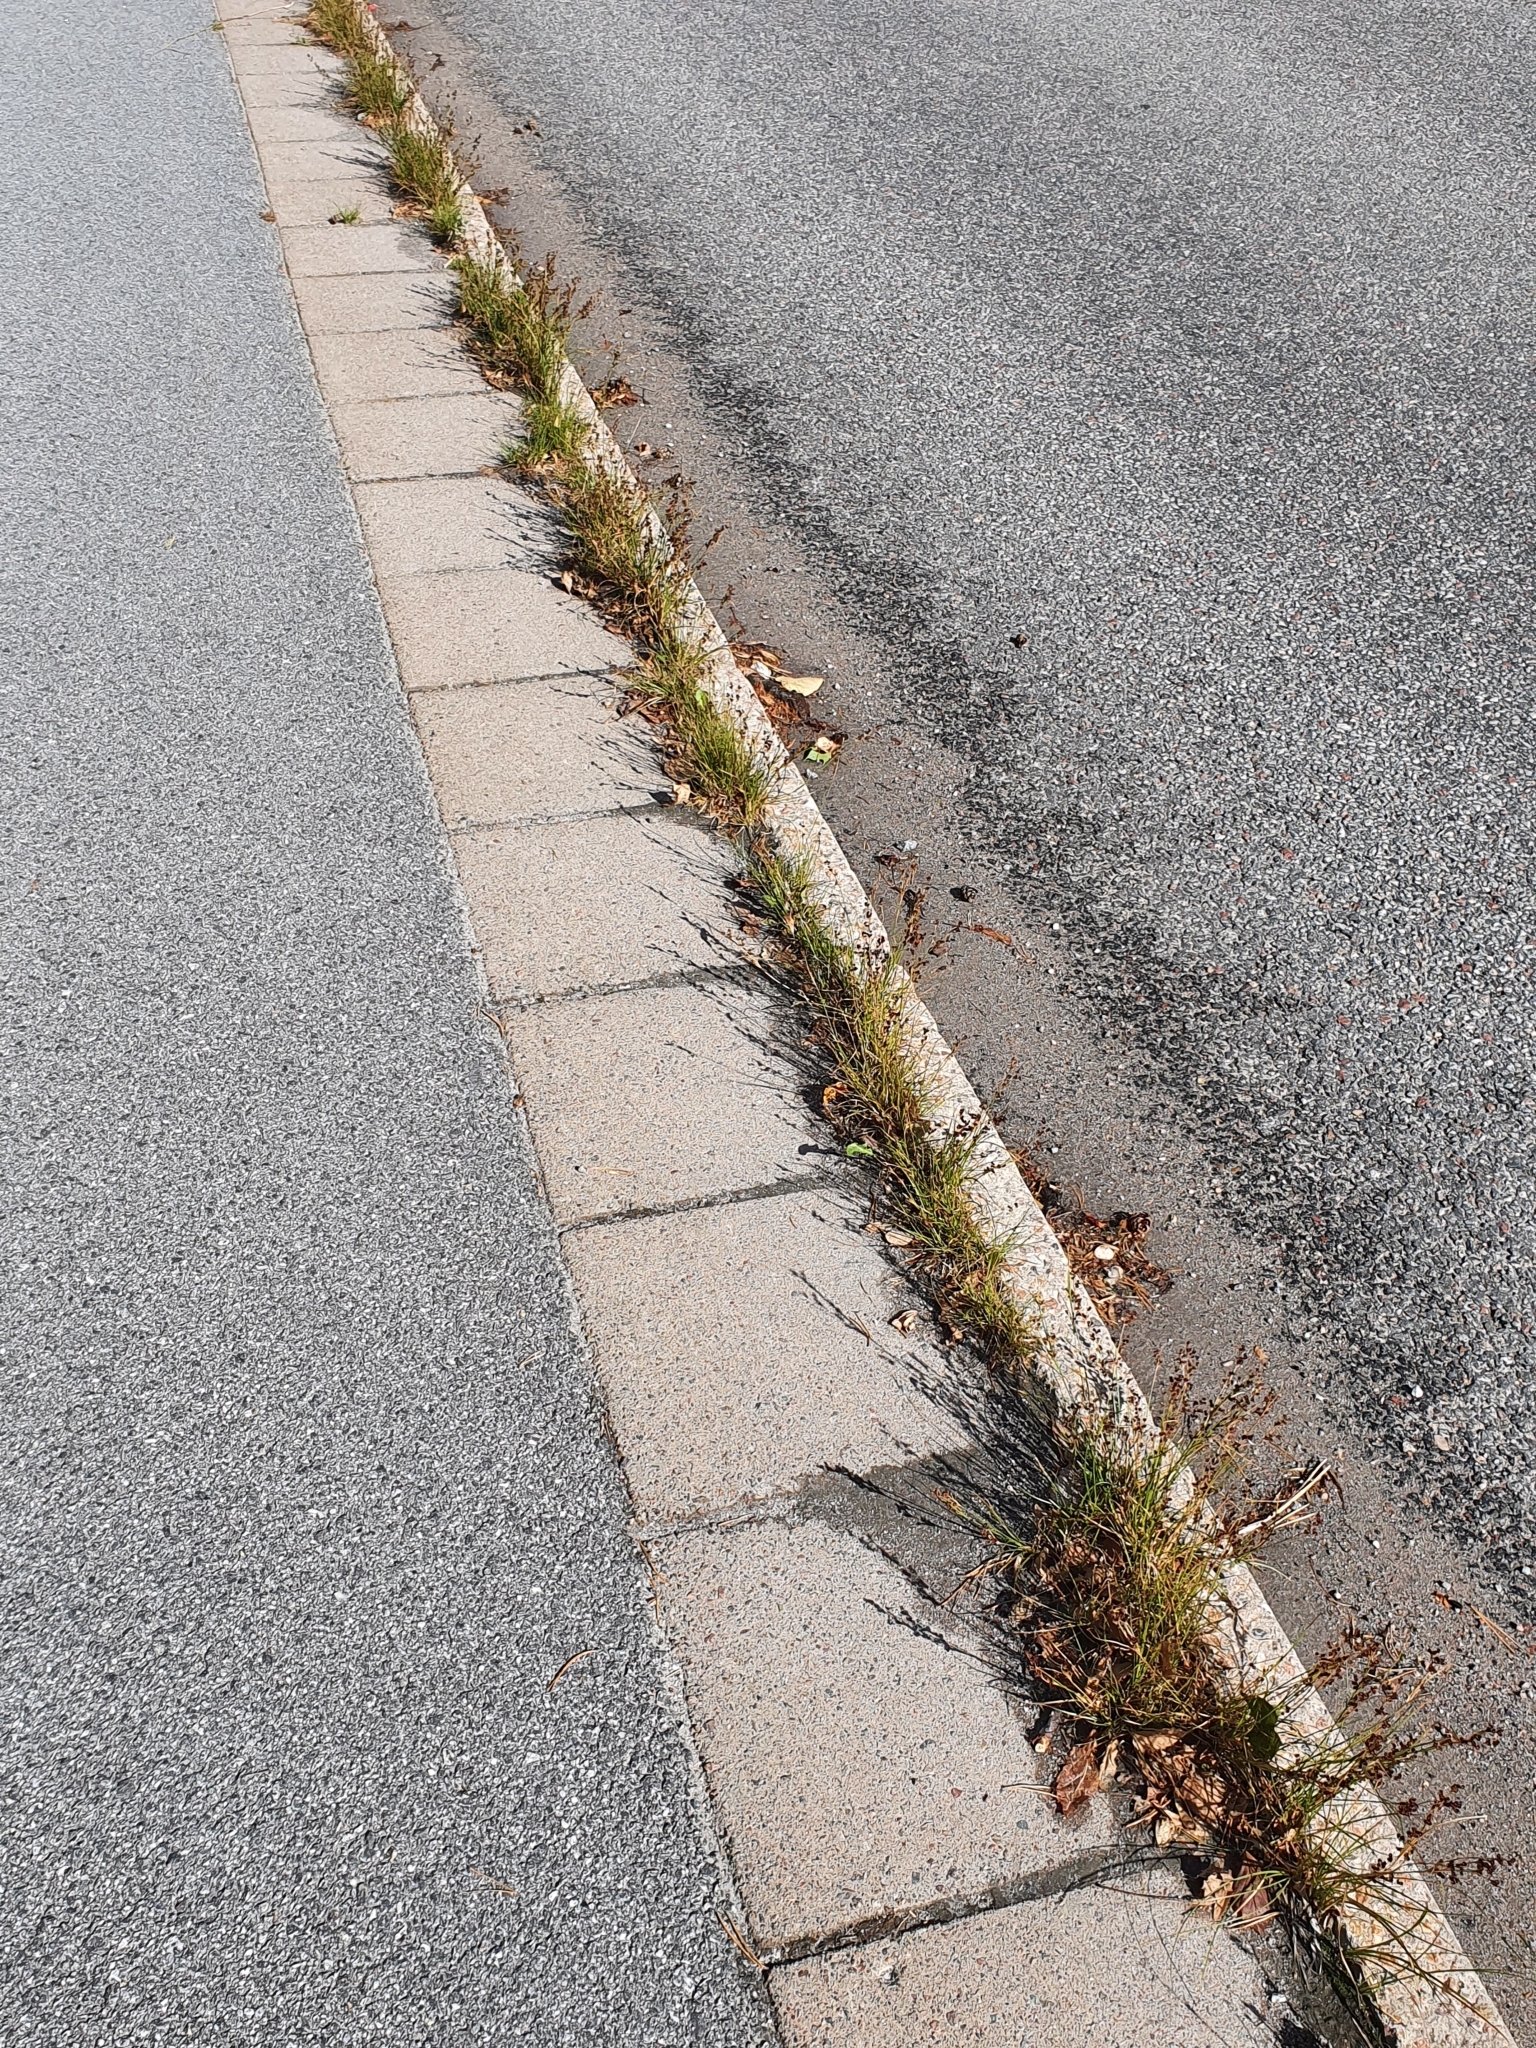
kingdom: Plantae
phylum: Tracheophyta
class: Liliopsida
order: Poales
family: Juncaceae
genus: Juncus
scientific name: Juncus compressus
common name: Round-fruited rush
